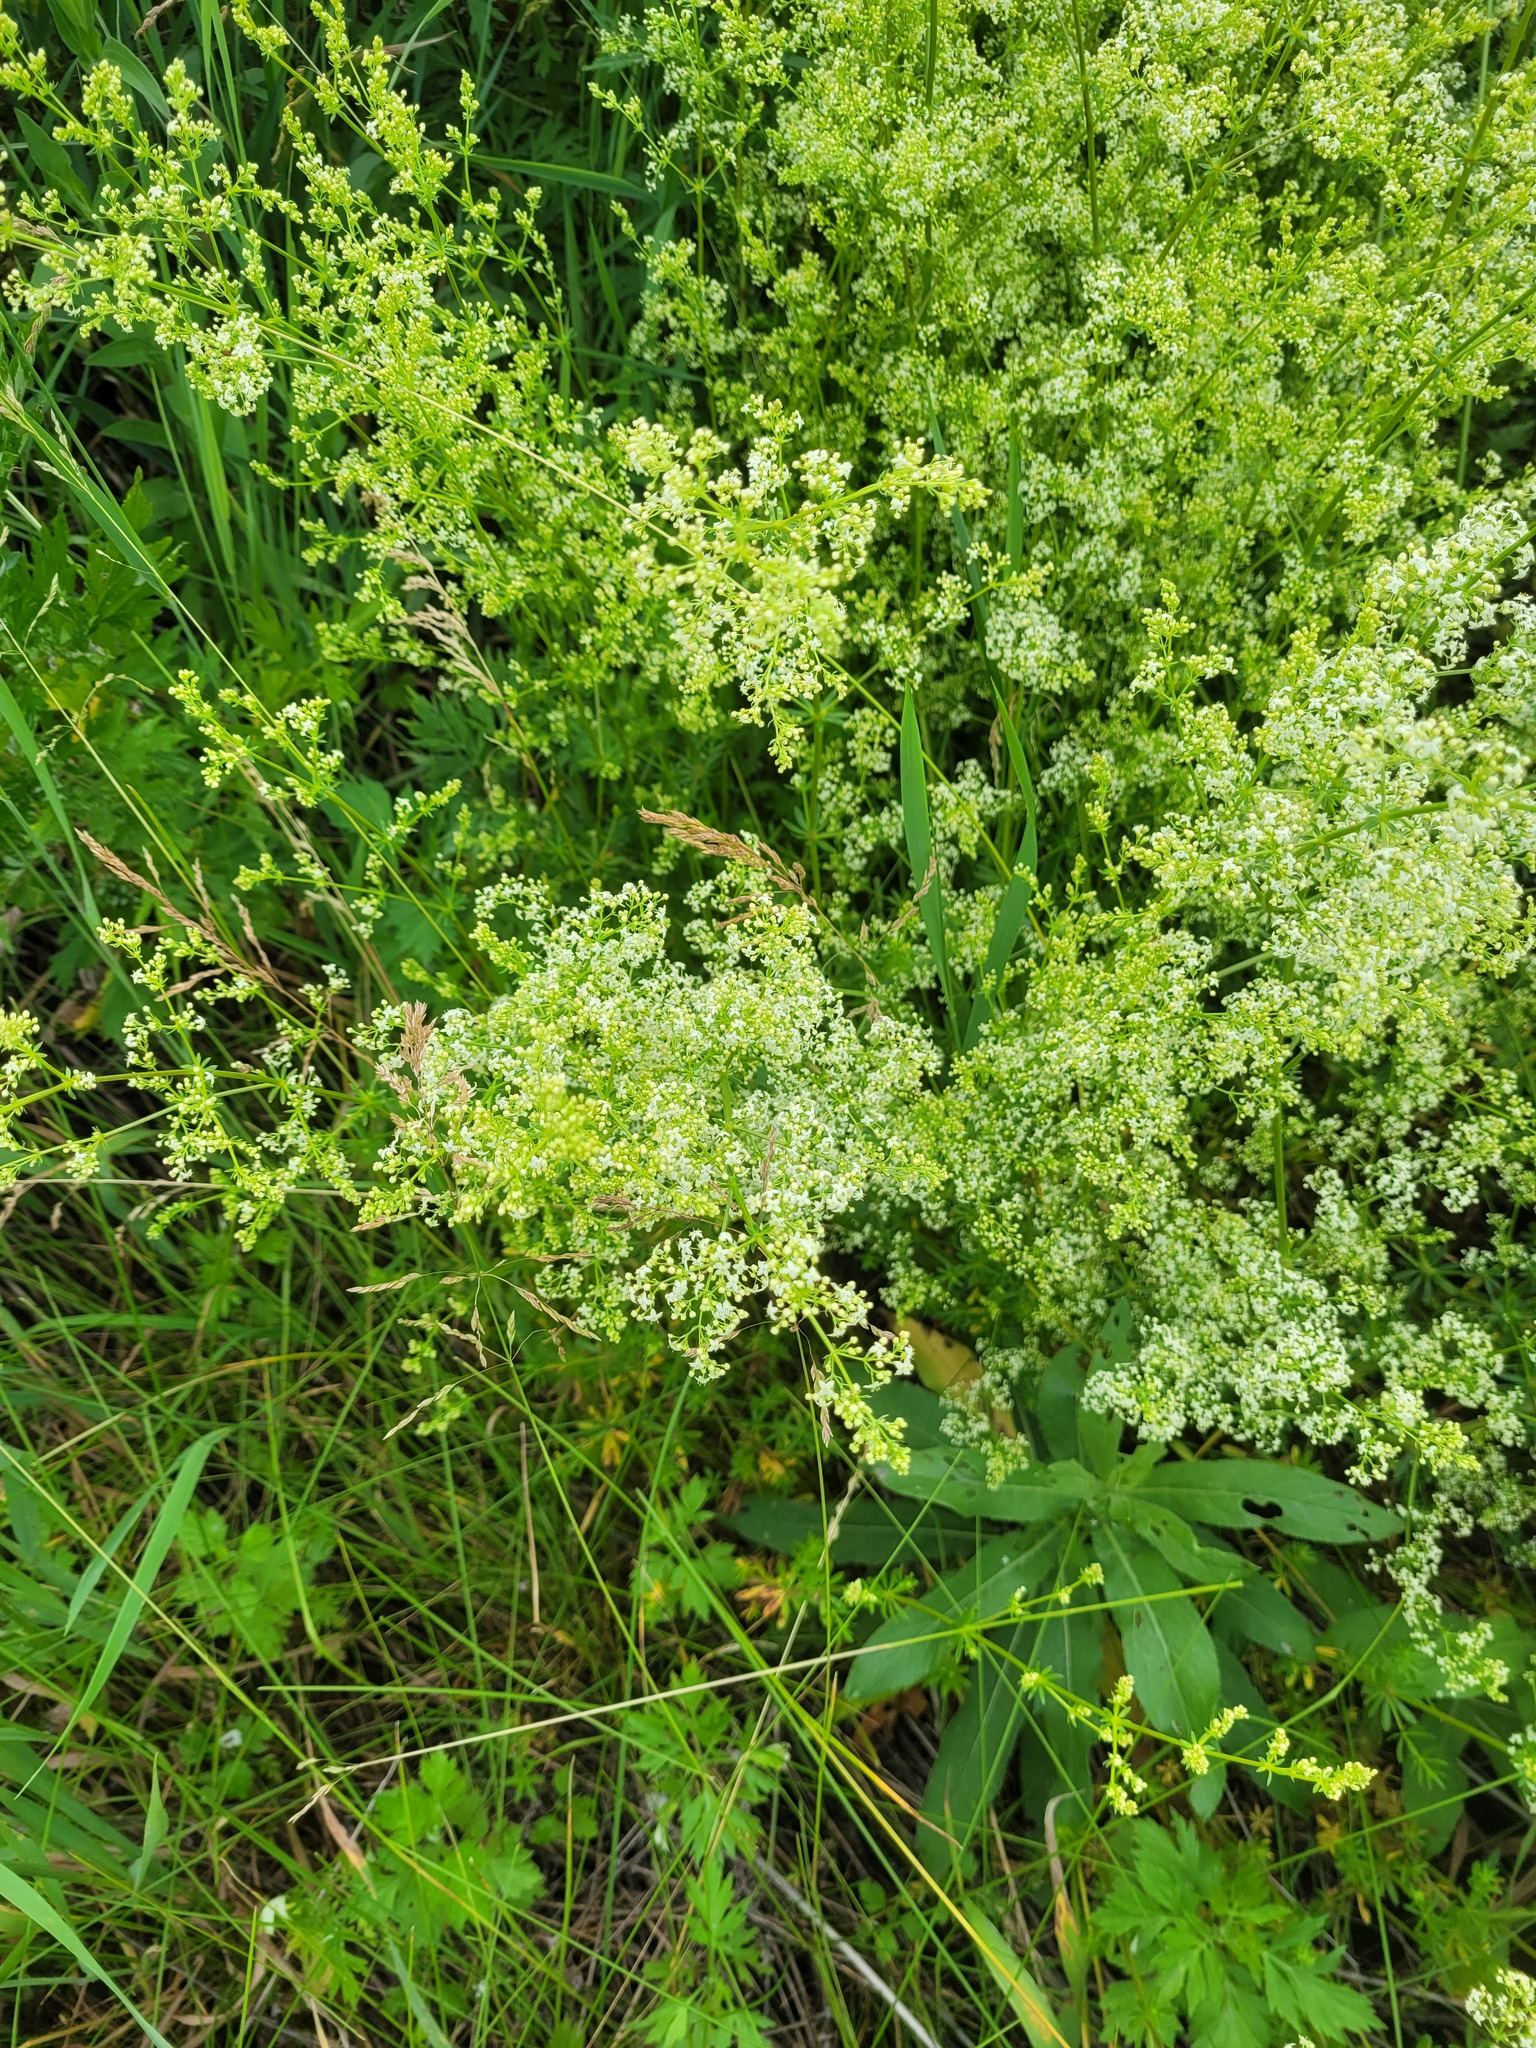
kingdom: Plantae
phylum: Tracheophyta
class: Magnoliopsida
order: Gentianales
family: Rubiaceae
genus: Galium
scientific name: Galium mollugo
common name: Hedge bedstraw
